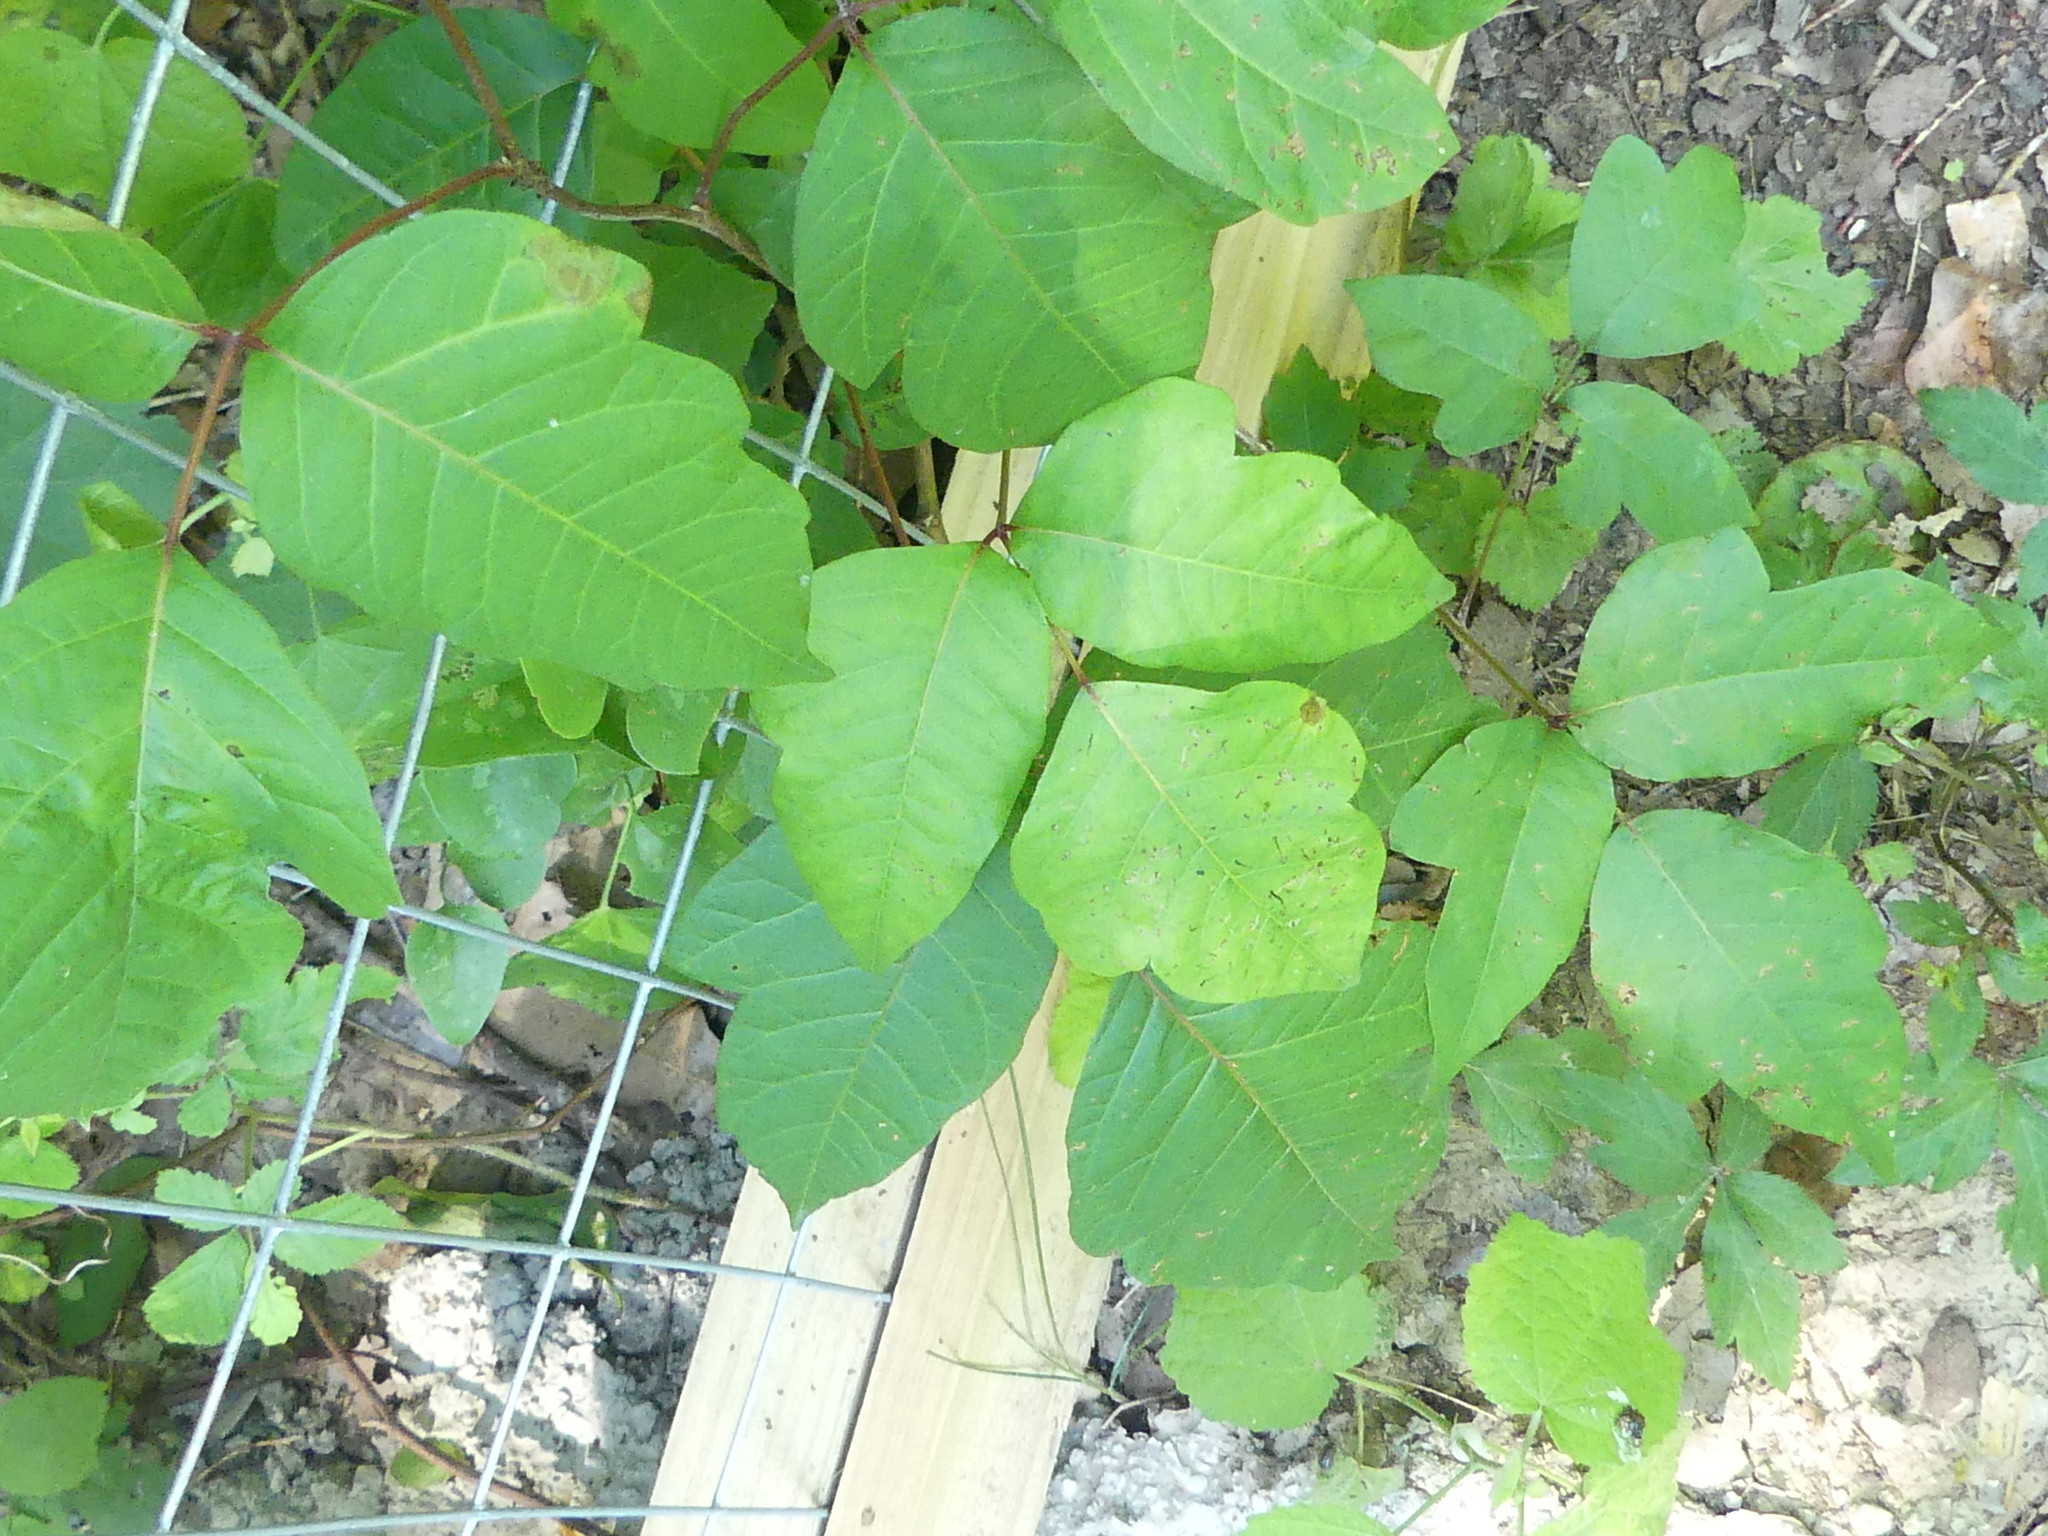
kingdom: Plantae
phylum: Tracheophyta
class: Magnoliopsida
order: Sapindales
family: Anacardiaceae
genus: Toxicodendron
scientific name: Toxicodendron radicans
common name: Poison ivy
